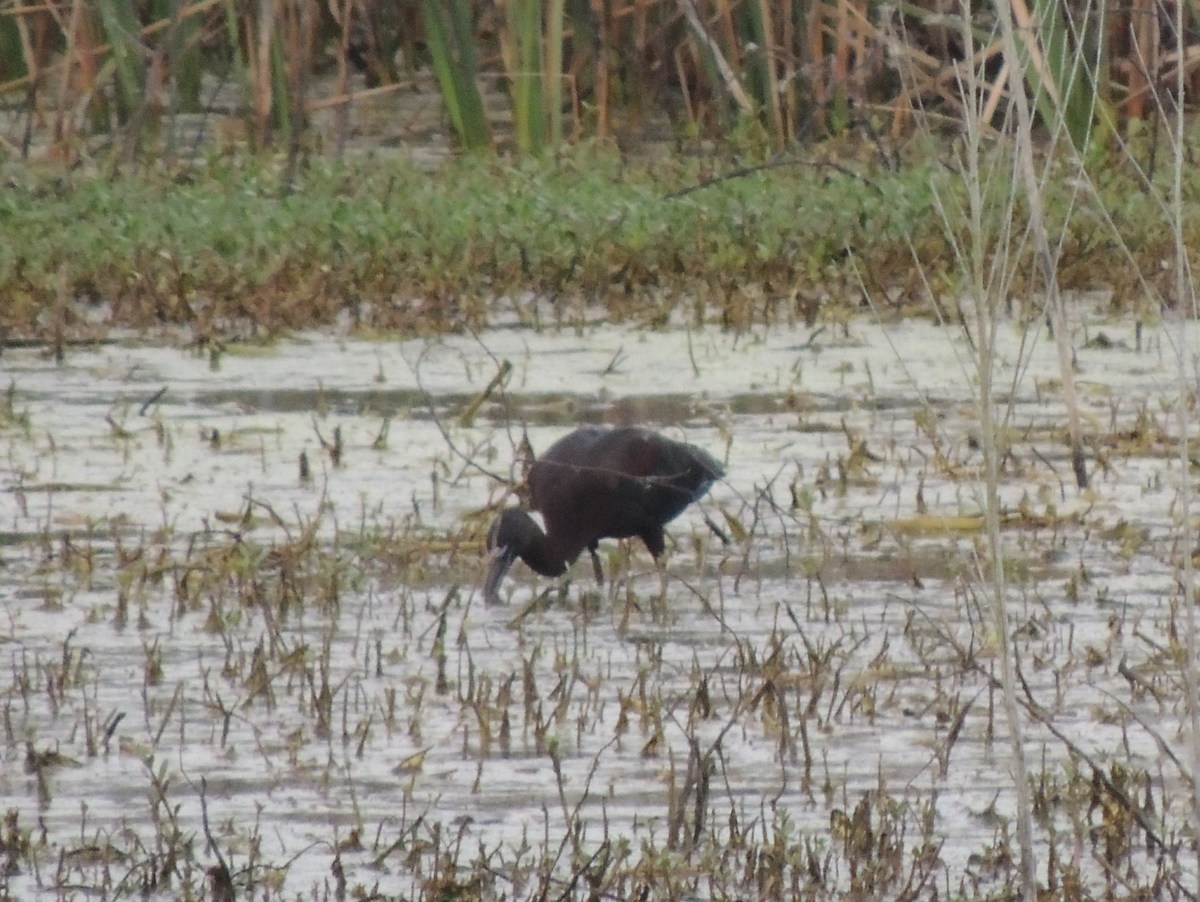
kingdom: Animalia
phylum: Chordata
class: Aves
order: Pelecaniformes
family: Threskiornithidae
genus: Plegadis
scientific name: Plegadis falcinellus
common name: Glossy ibis
